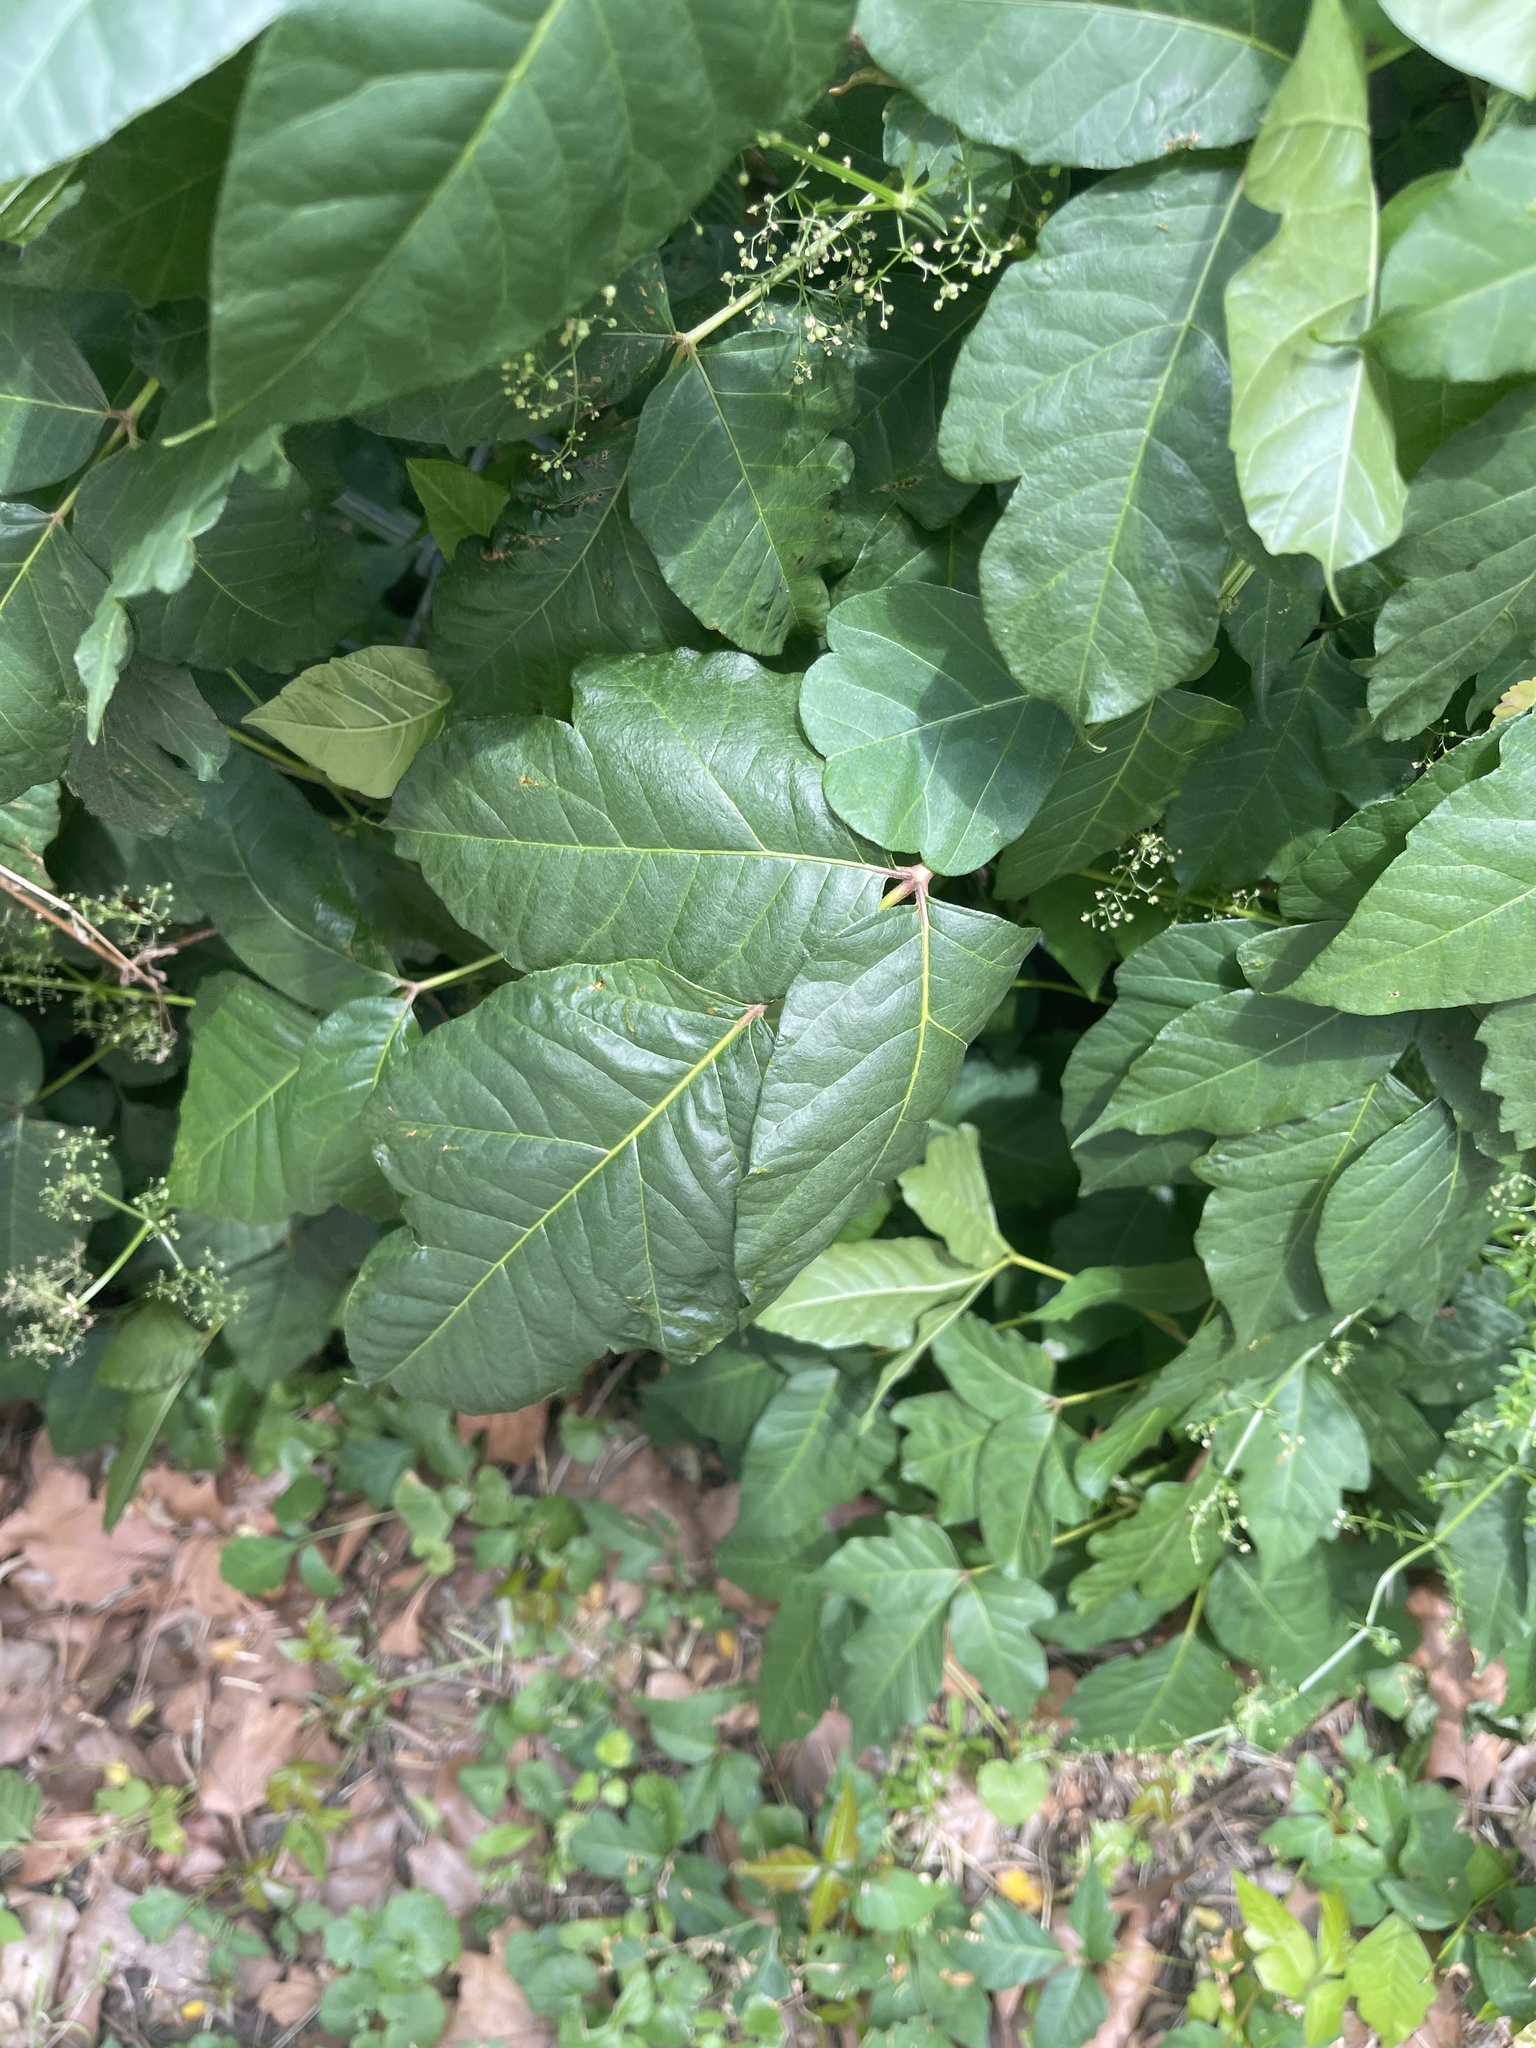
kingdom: Plantae
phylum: Tracheophyta
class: Magnoliopsida
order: Sapindales
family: Anacardiaceae
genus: Toxicodendron
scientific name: Toxicodendron radicans
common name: Poison ivy
